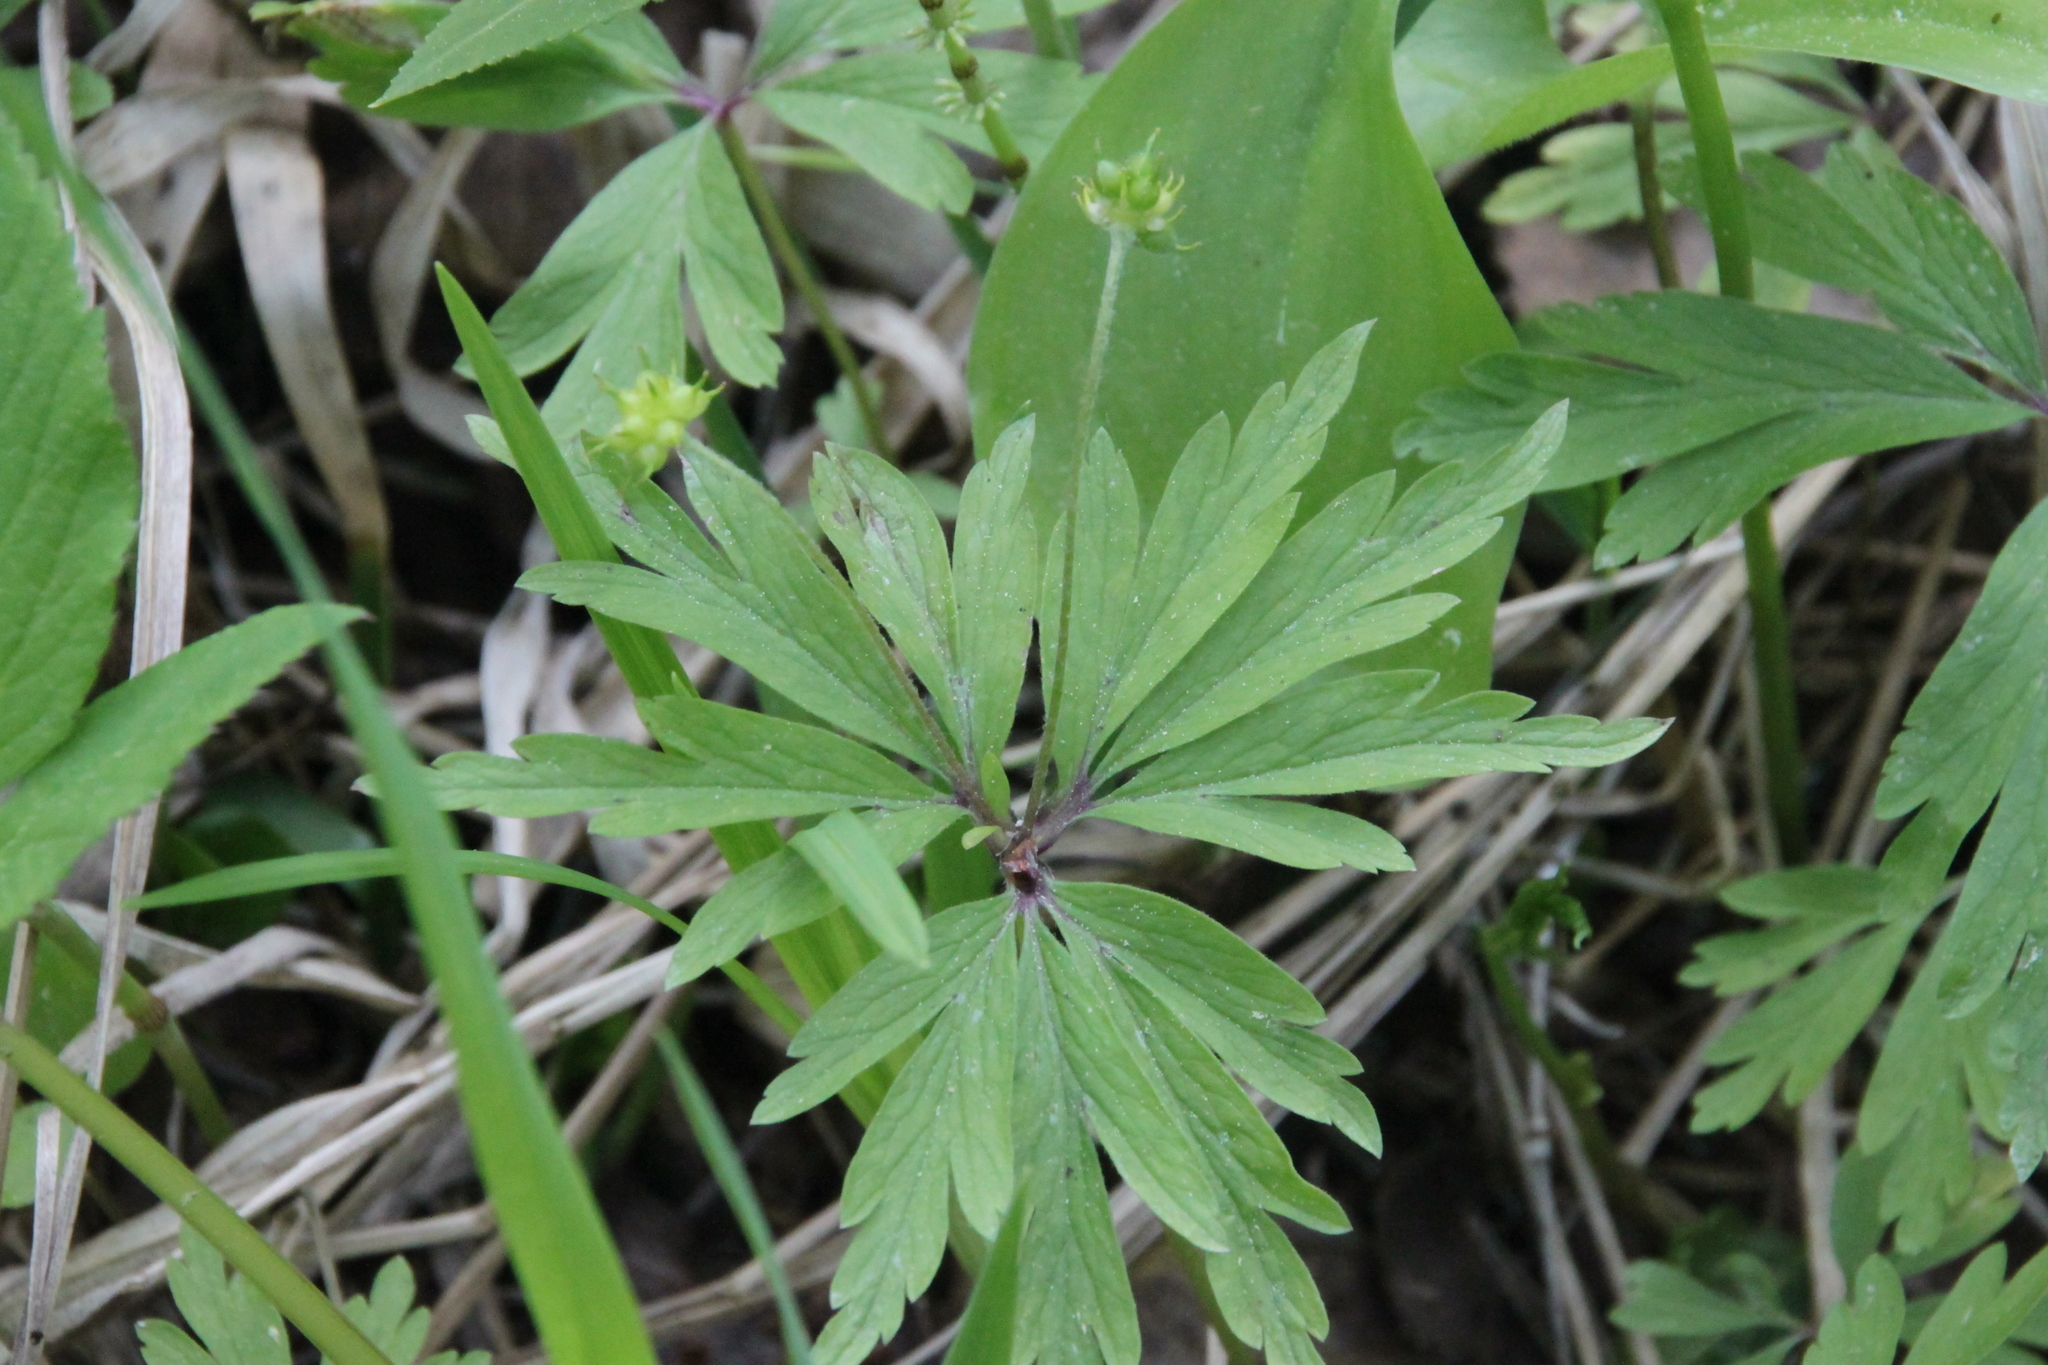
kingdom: Plantae
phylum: Tracheophyta
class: Magnoliopsida
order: Ranunculales
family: Ranunculaceae
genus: Anemone
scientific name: Anemone ranunculoides
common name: Yellow anemone
